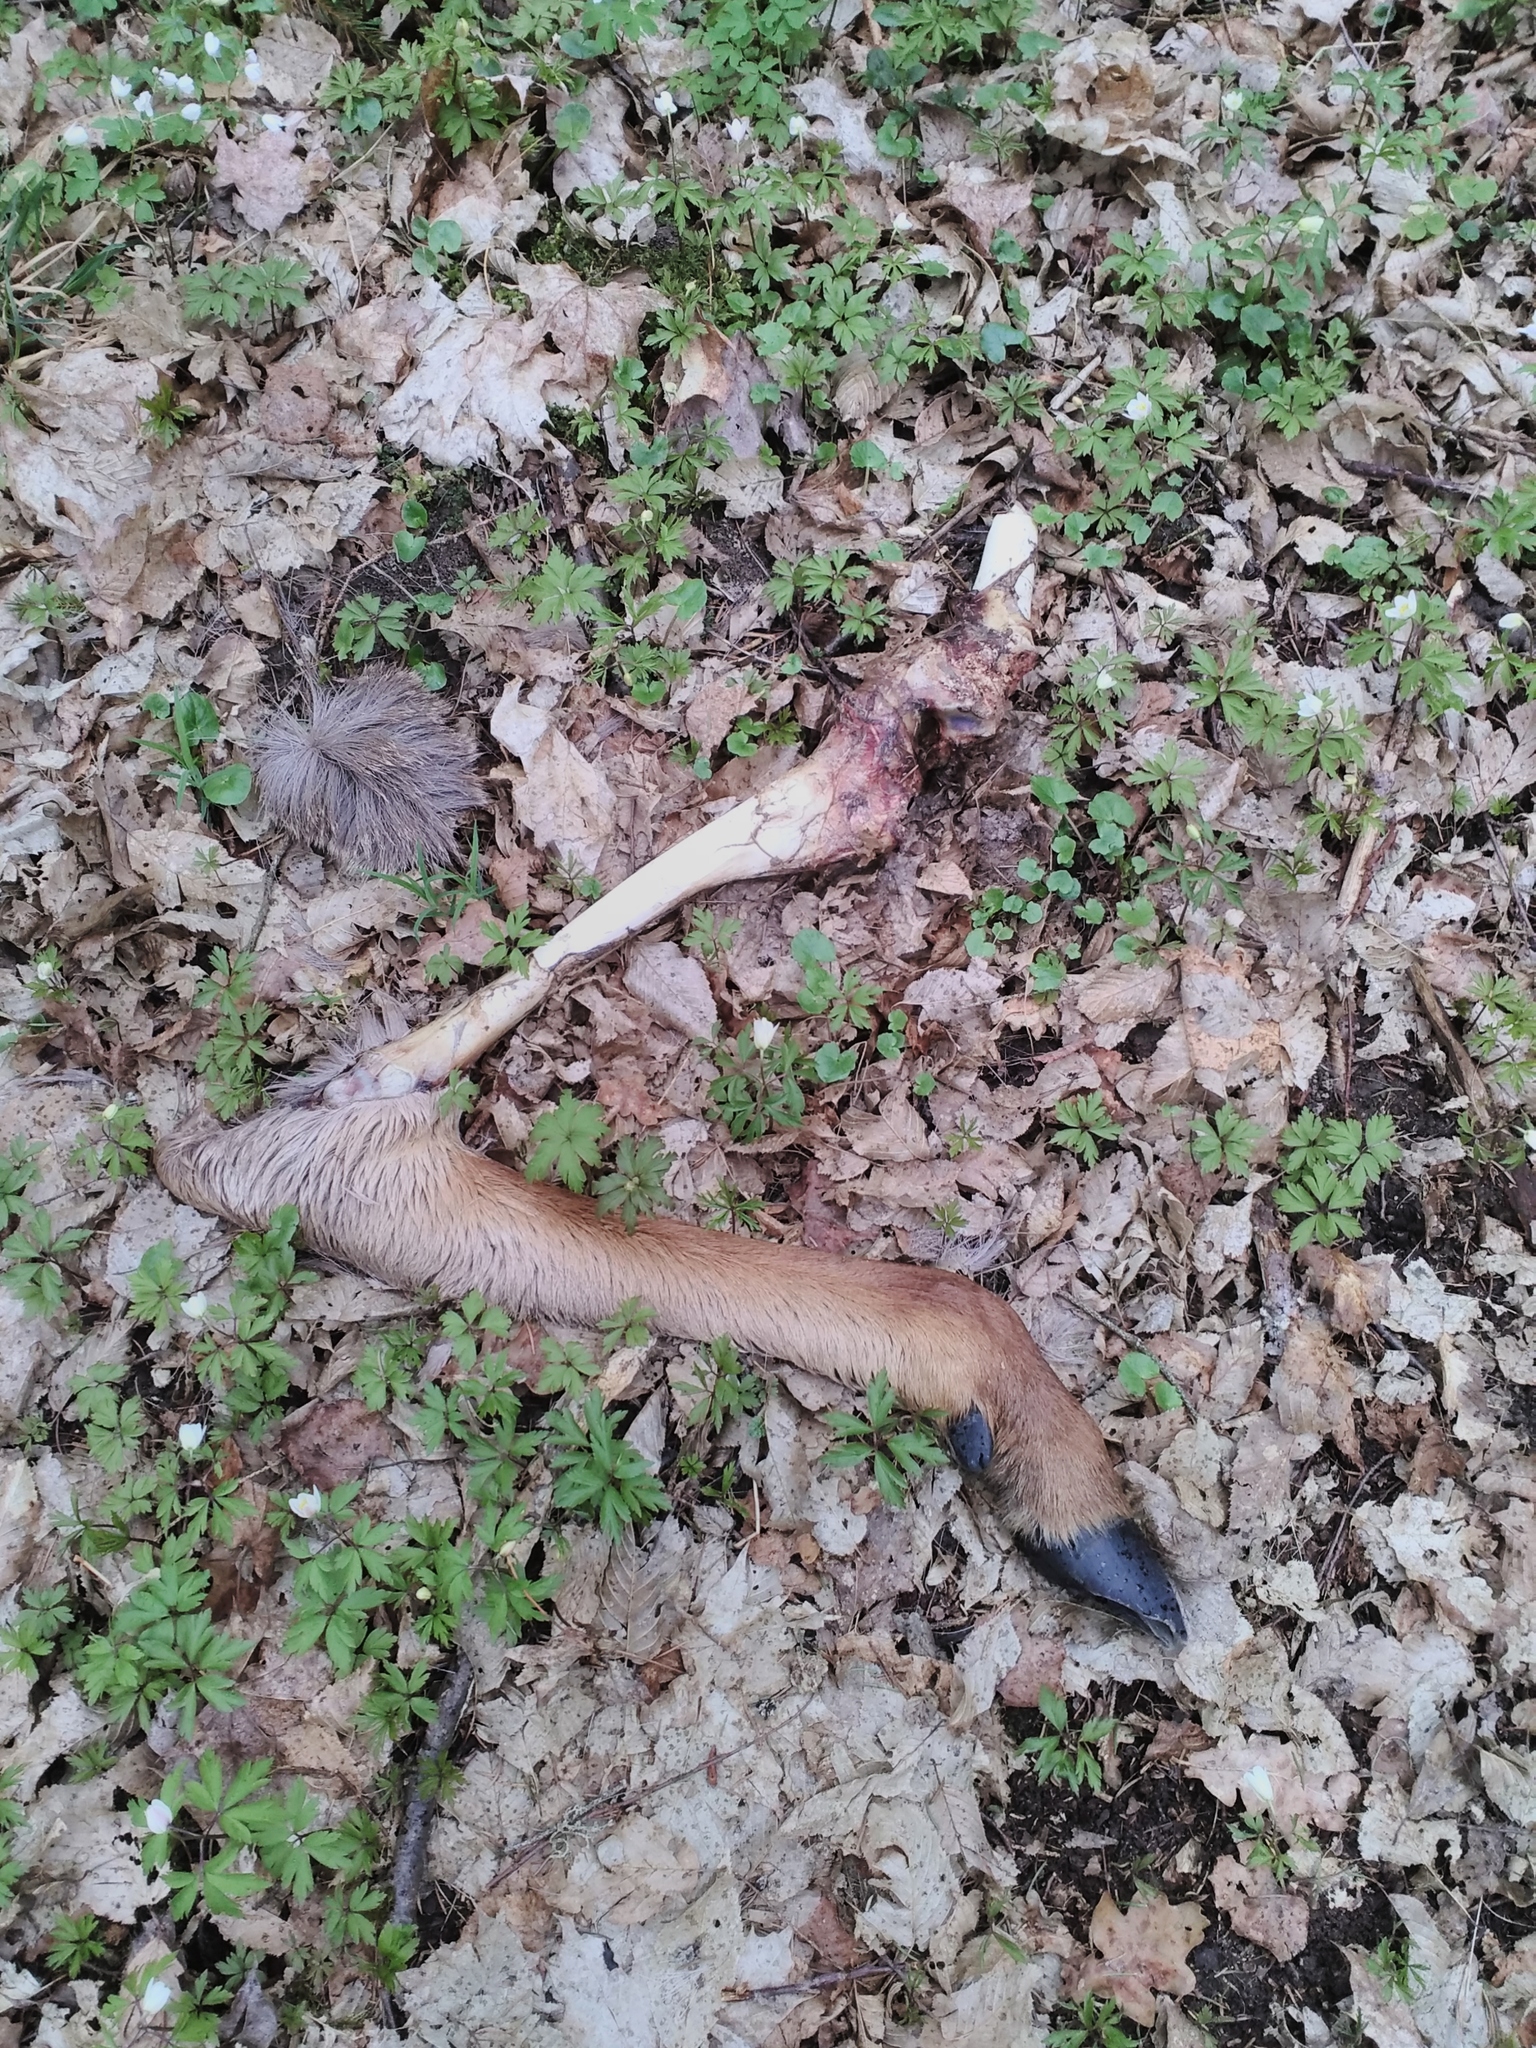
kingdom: Animalia
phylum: Chordata
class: Mammalia
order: Artiodactyla
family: Cervidae
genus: Cervus
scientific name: Cervus elaphus
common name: Red deer
